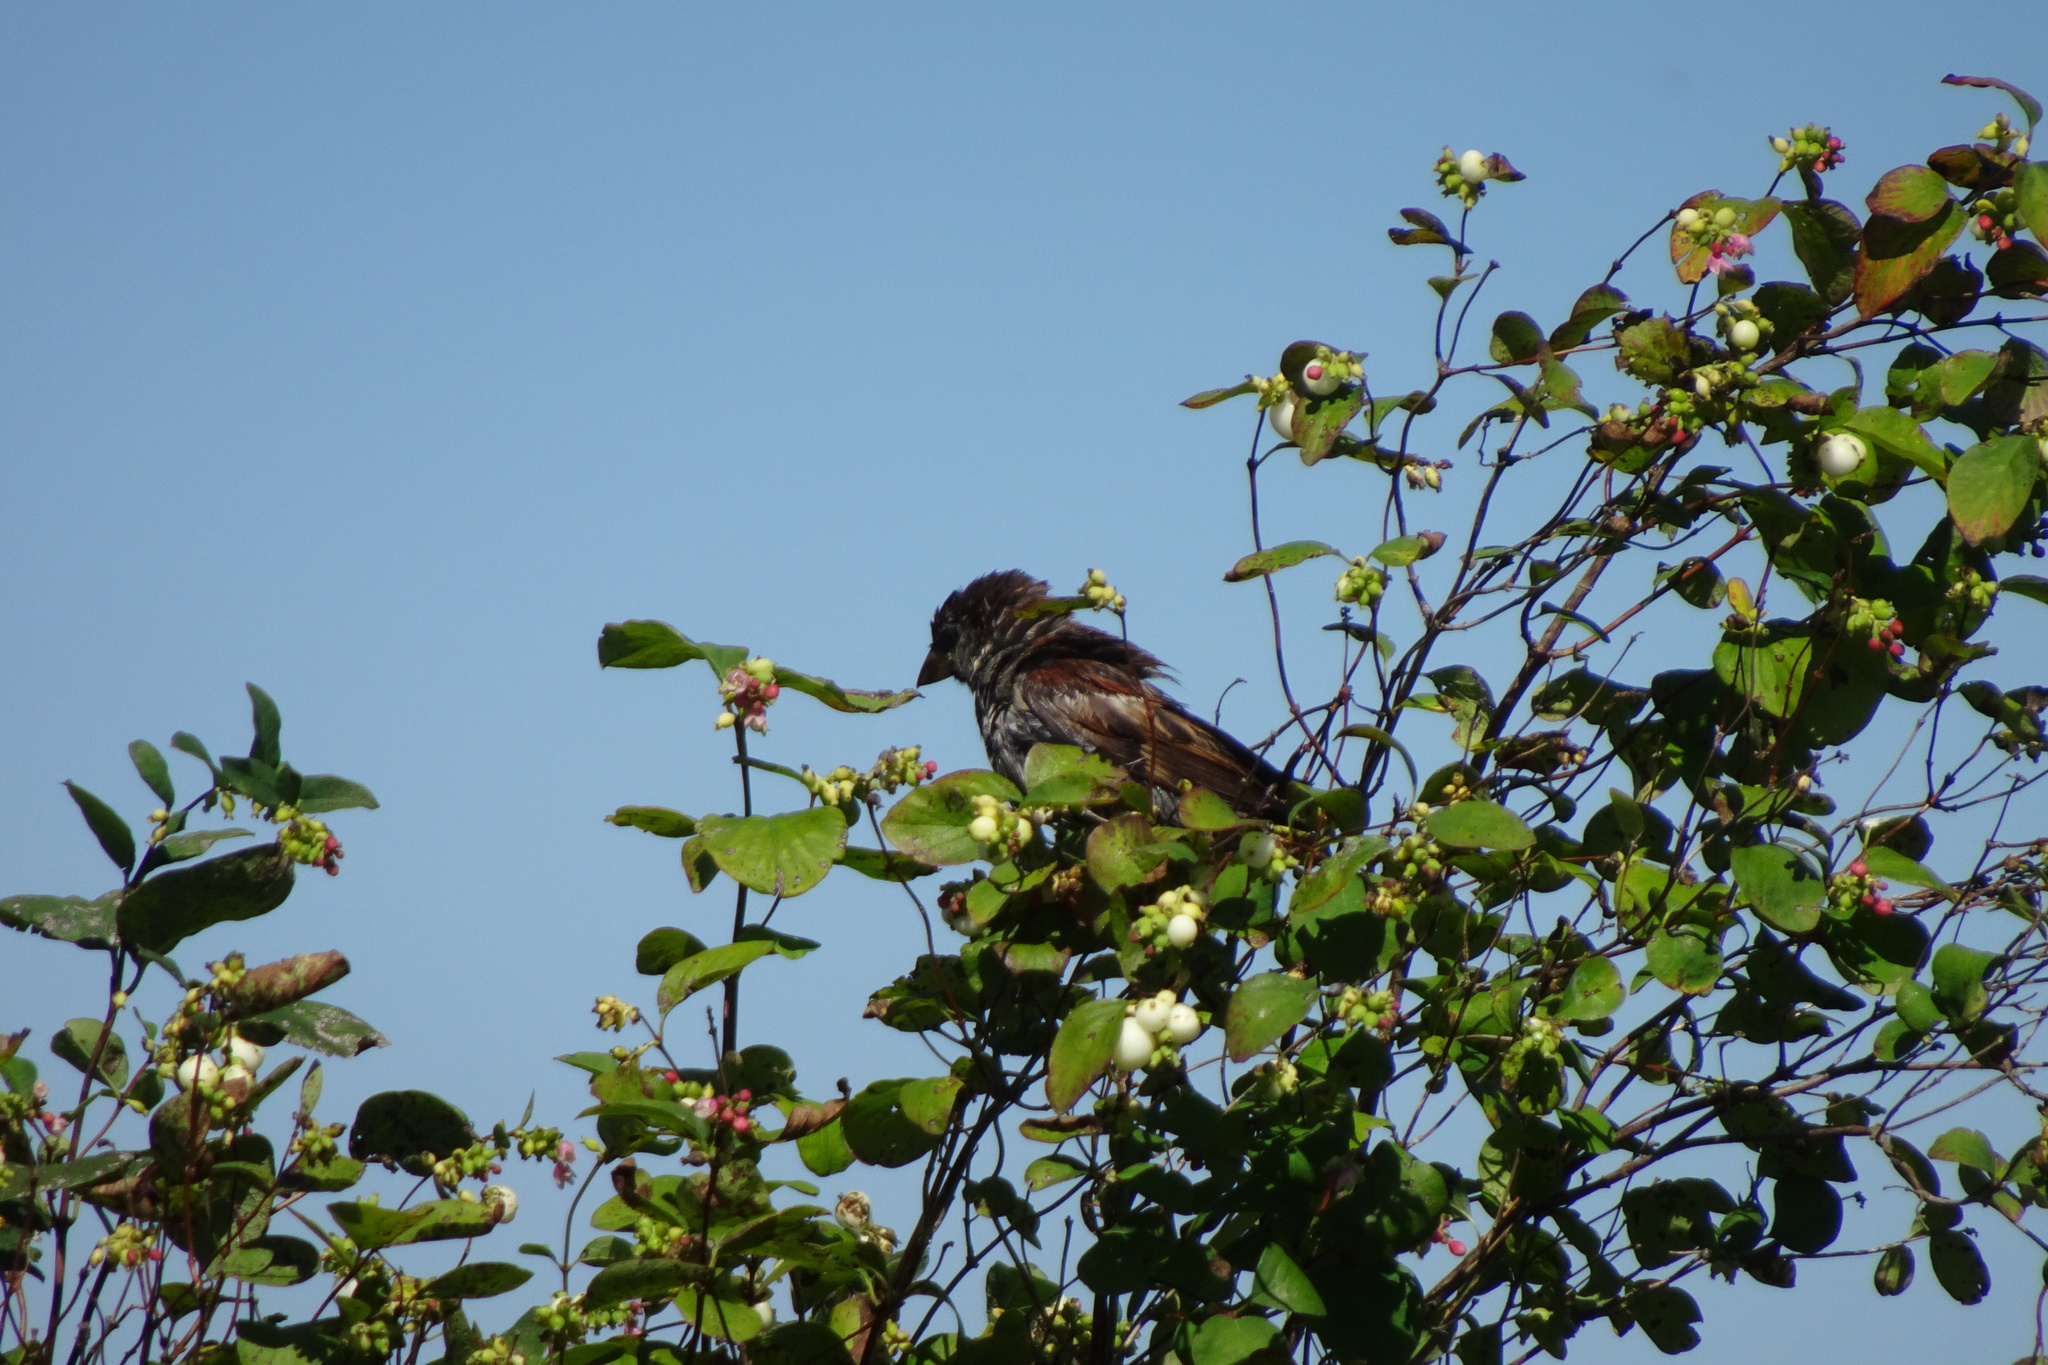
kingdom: Animalia
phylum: Chordata
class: Aves
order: Passeriformes
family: Passeridae
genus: Passer
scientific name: Passer domesticus
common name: House sparrow
